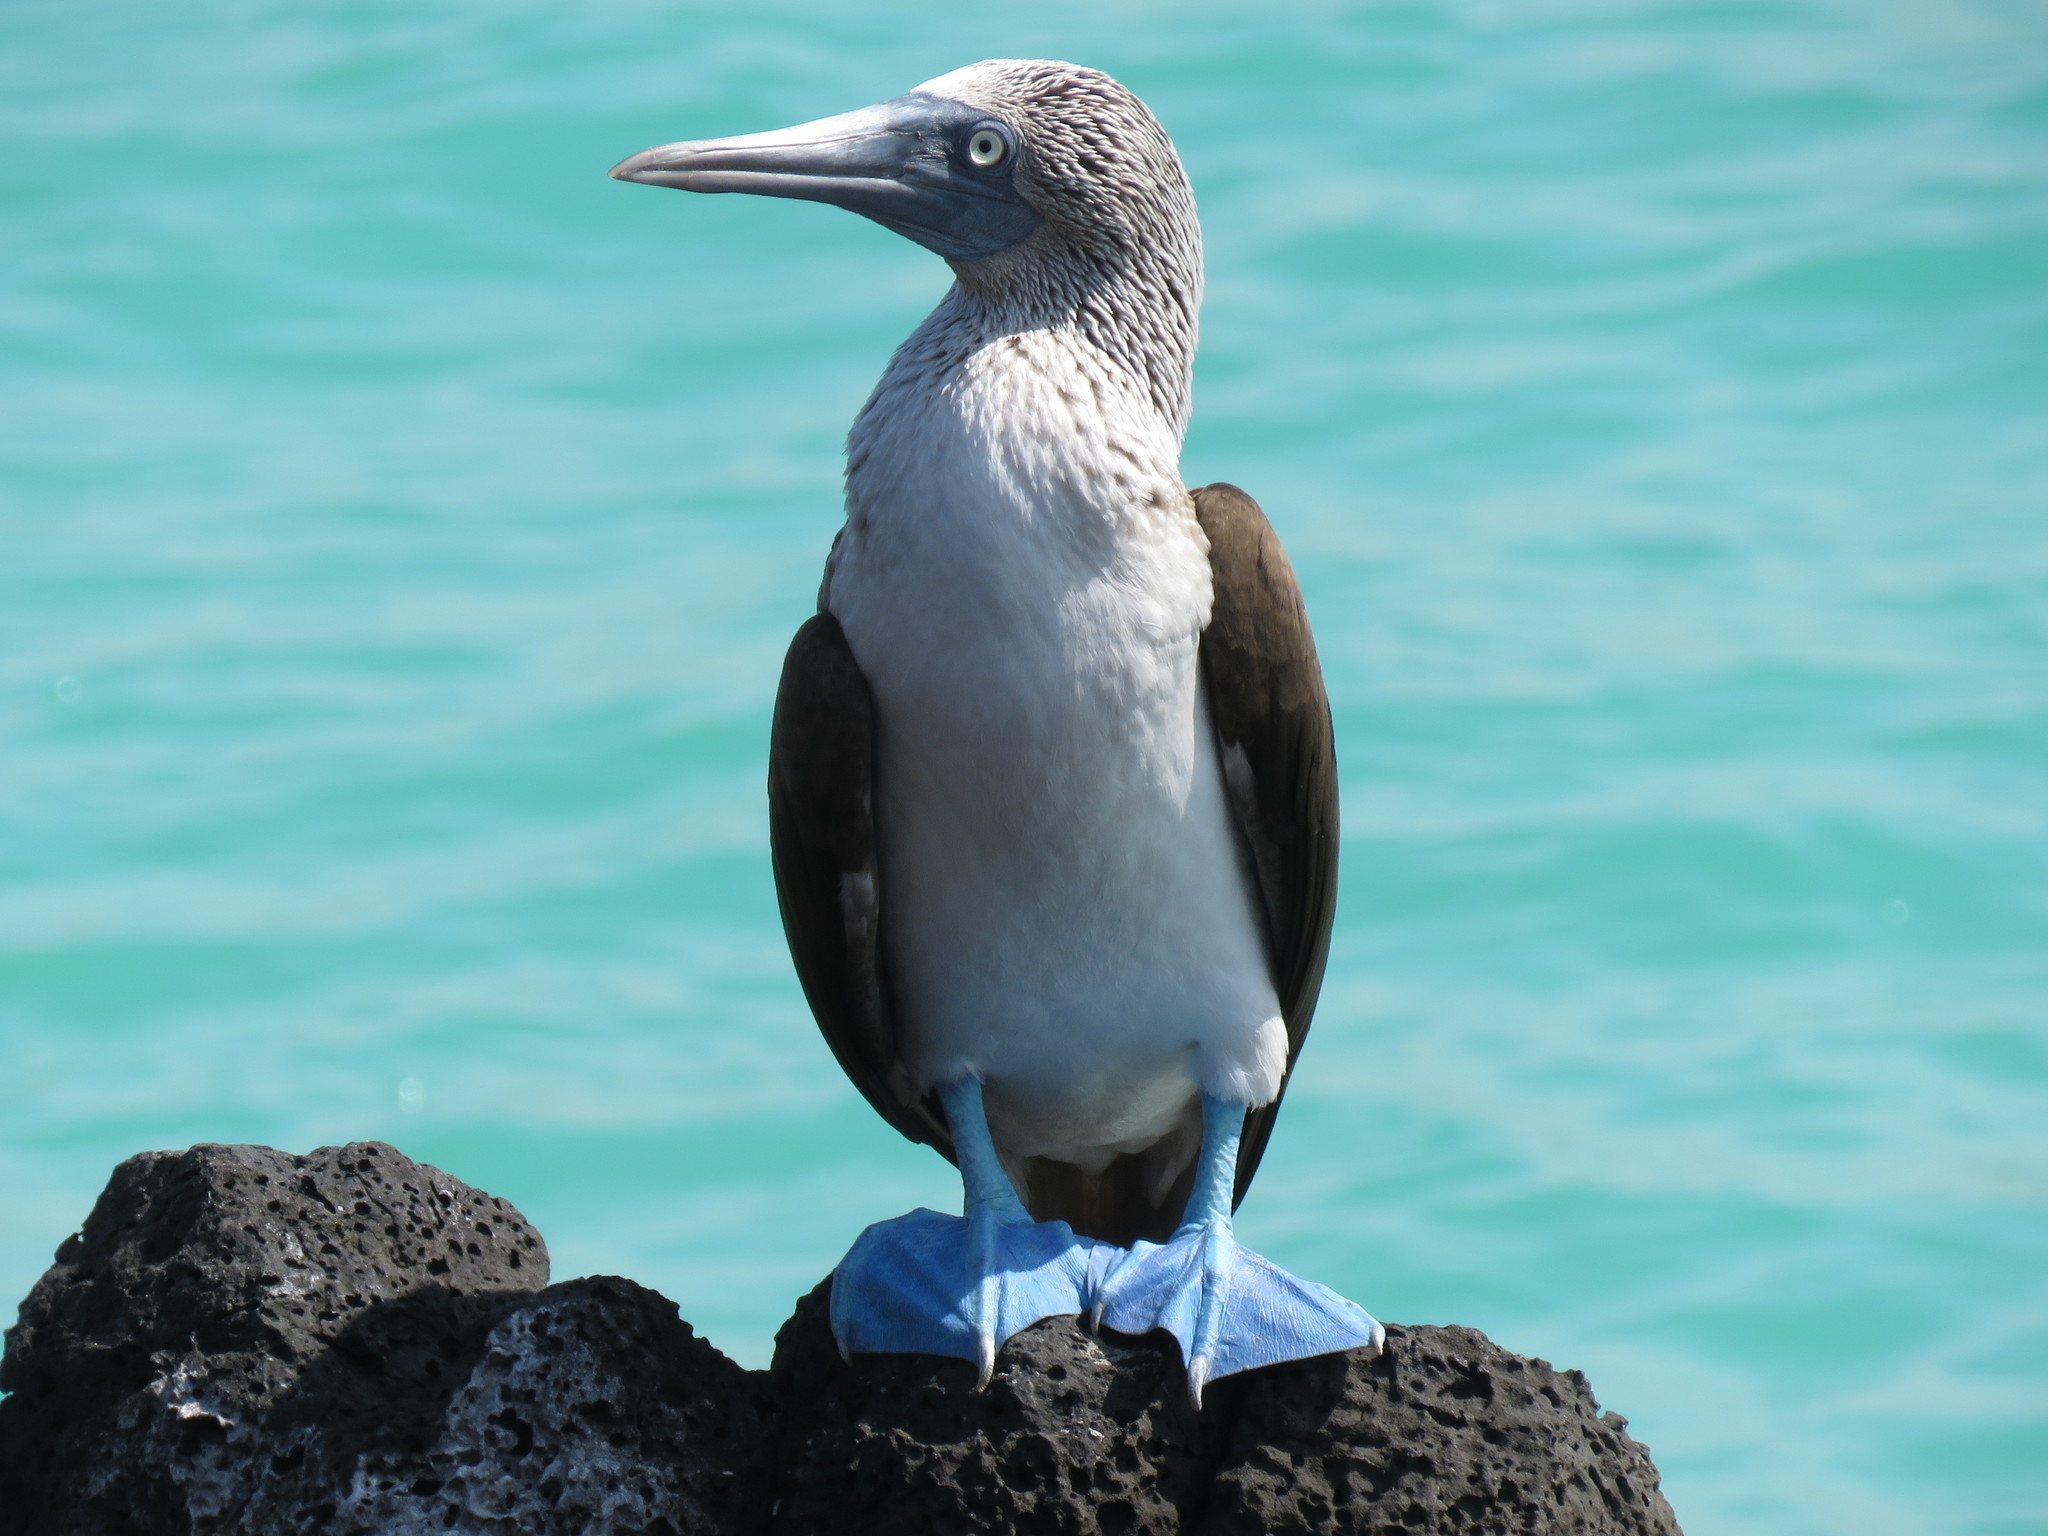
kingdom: Animalia
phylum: Chordata
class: Aves
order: Suliformes
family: Sulidae
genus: Sula
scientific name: Sula nebouxii
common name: Blue-footed booby
